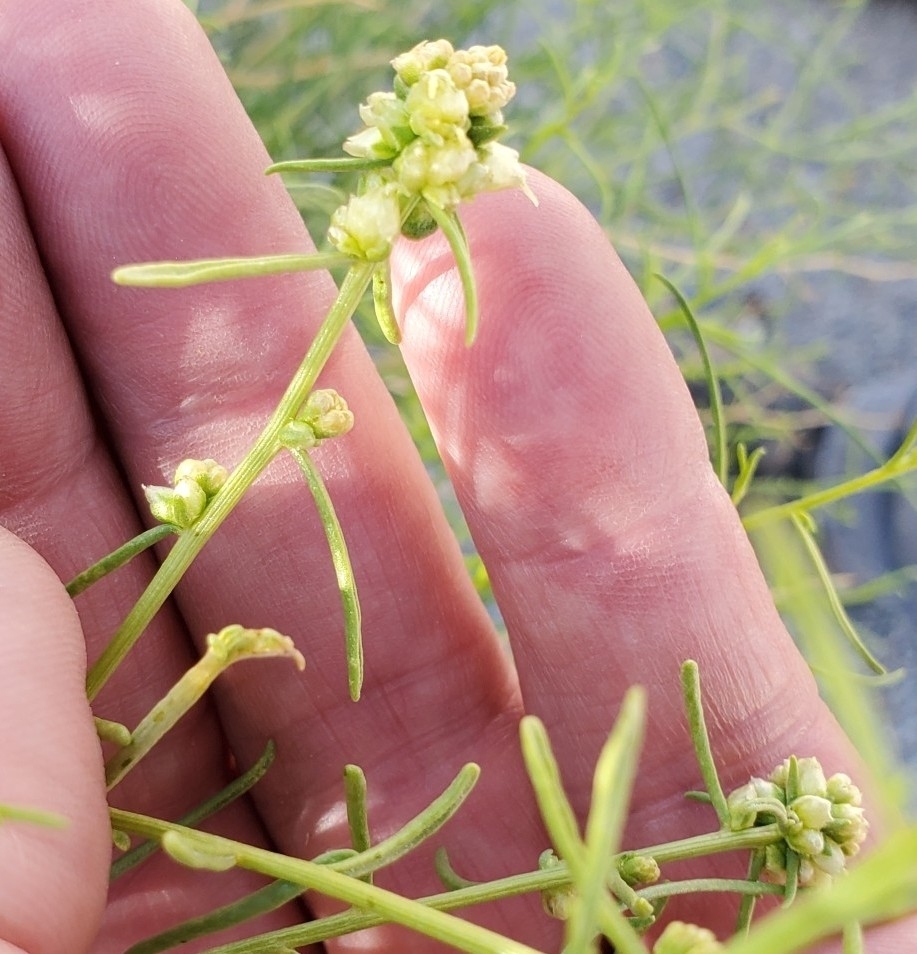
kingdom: Plantae
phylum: Tracheophyta
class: Magnoliopsida
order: Asterales
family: Asteraceae
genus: Ambrosia
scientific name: Ambrosia salsola
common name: Burrobrush
